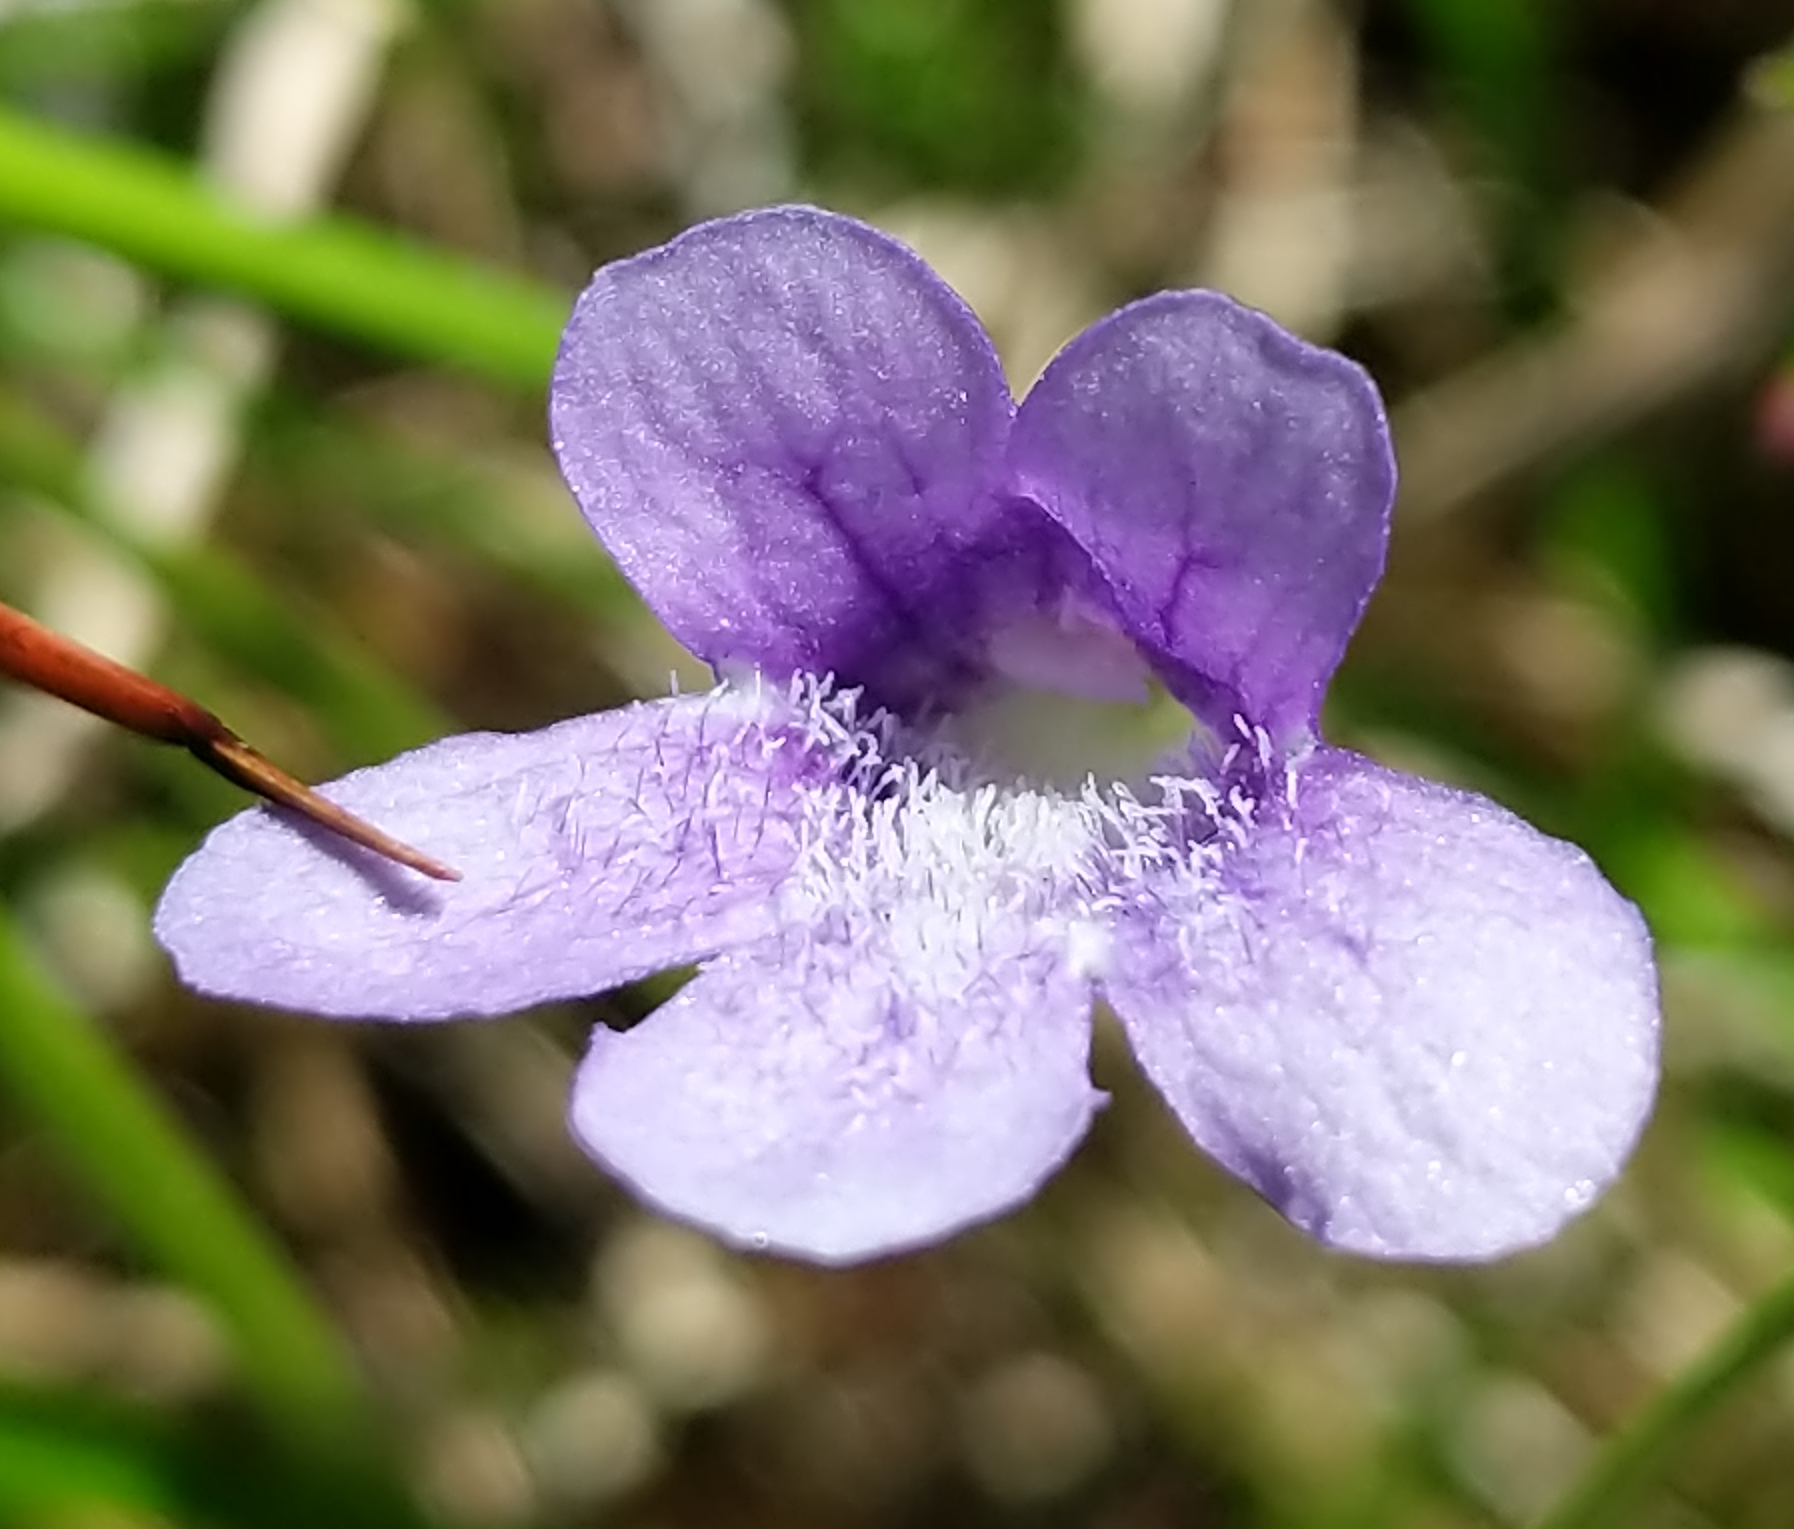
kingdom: Plantae
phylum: Tracheophyta
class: Magnoliopsida
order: Lamiales
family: Lentibulariaceae
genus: Pinguicula
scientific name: Pinguicula vulgaris
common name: Common butterwort
